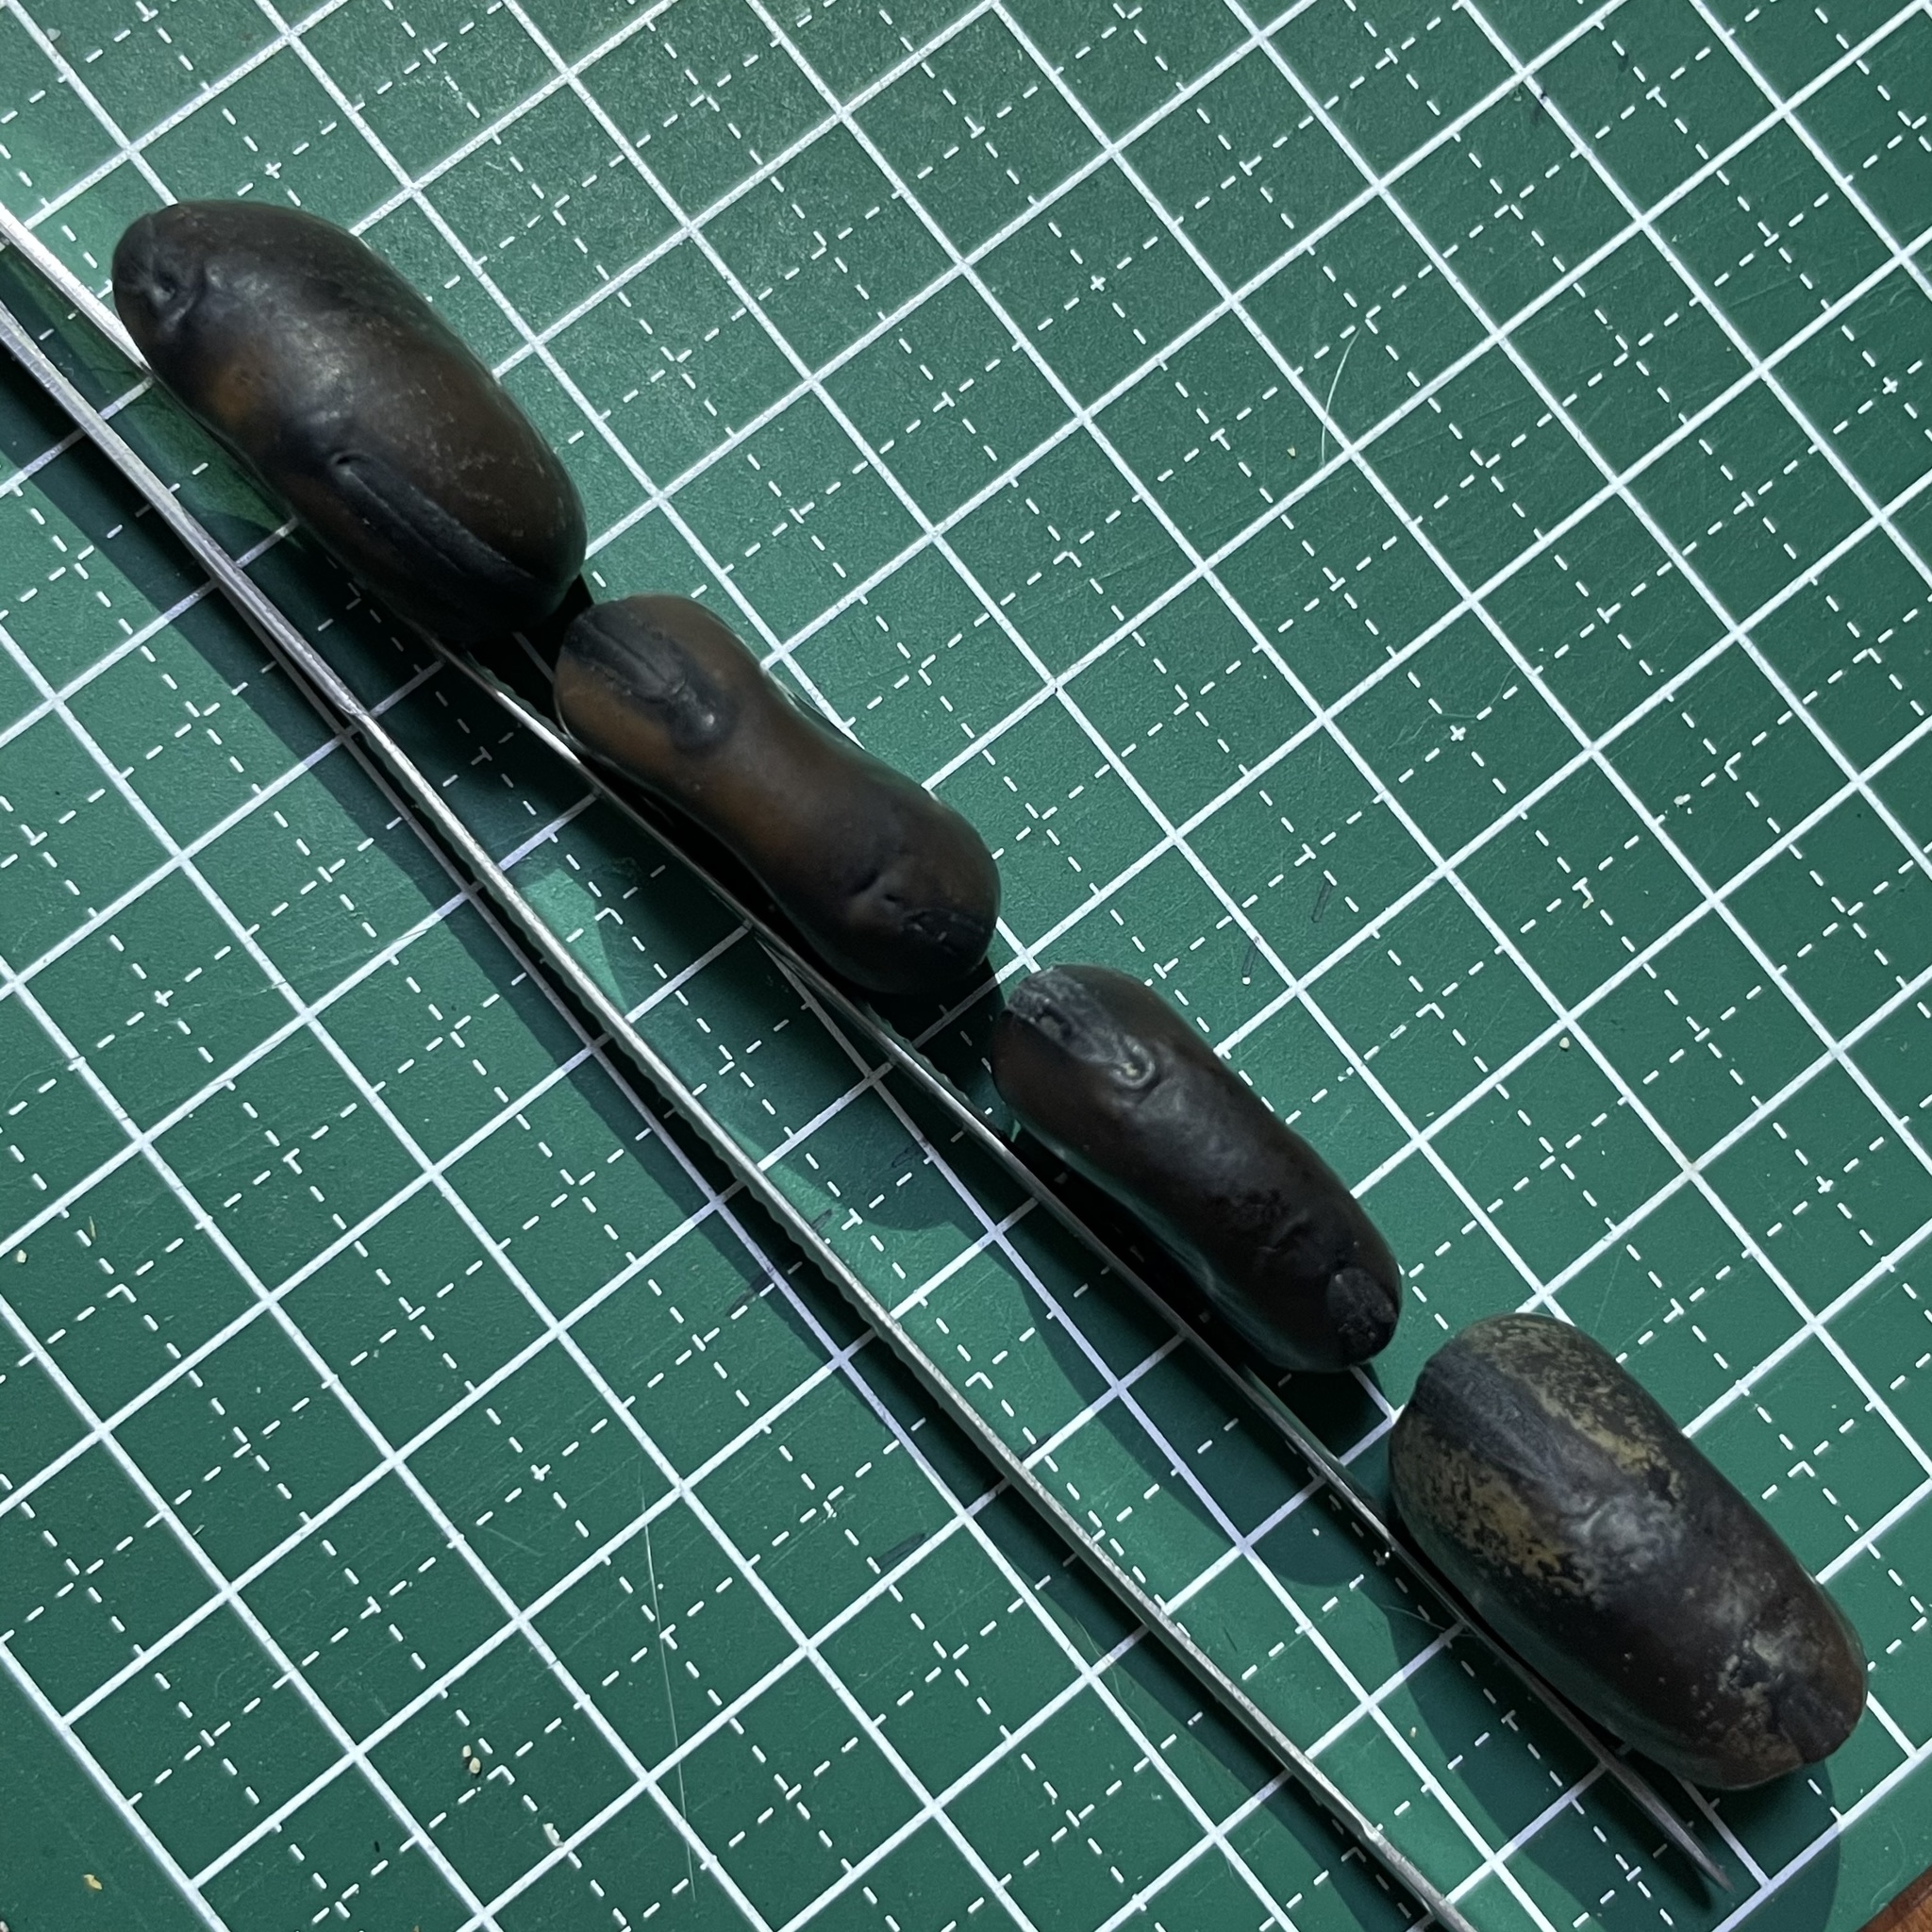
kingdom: Plantae
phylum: Tracheophyta
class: Magnoliopsida
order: Fabales
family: Fabaceae
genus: Mucuna
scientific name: Mucuna macrocarpa
